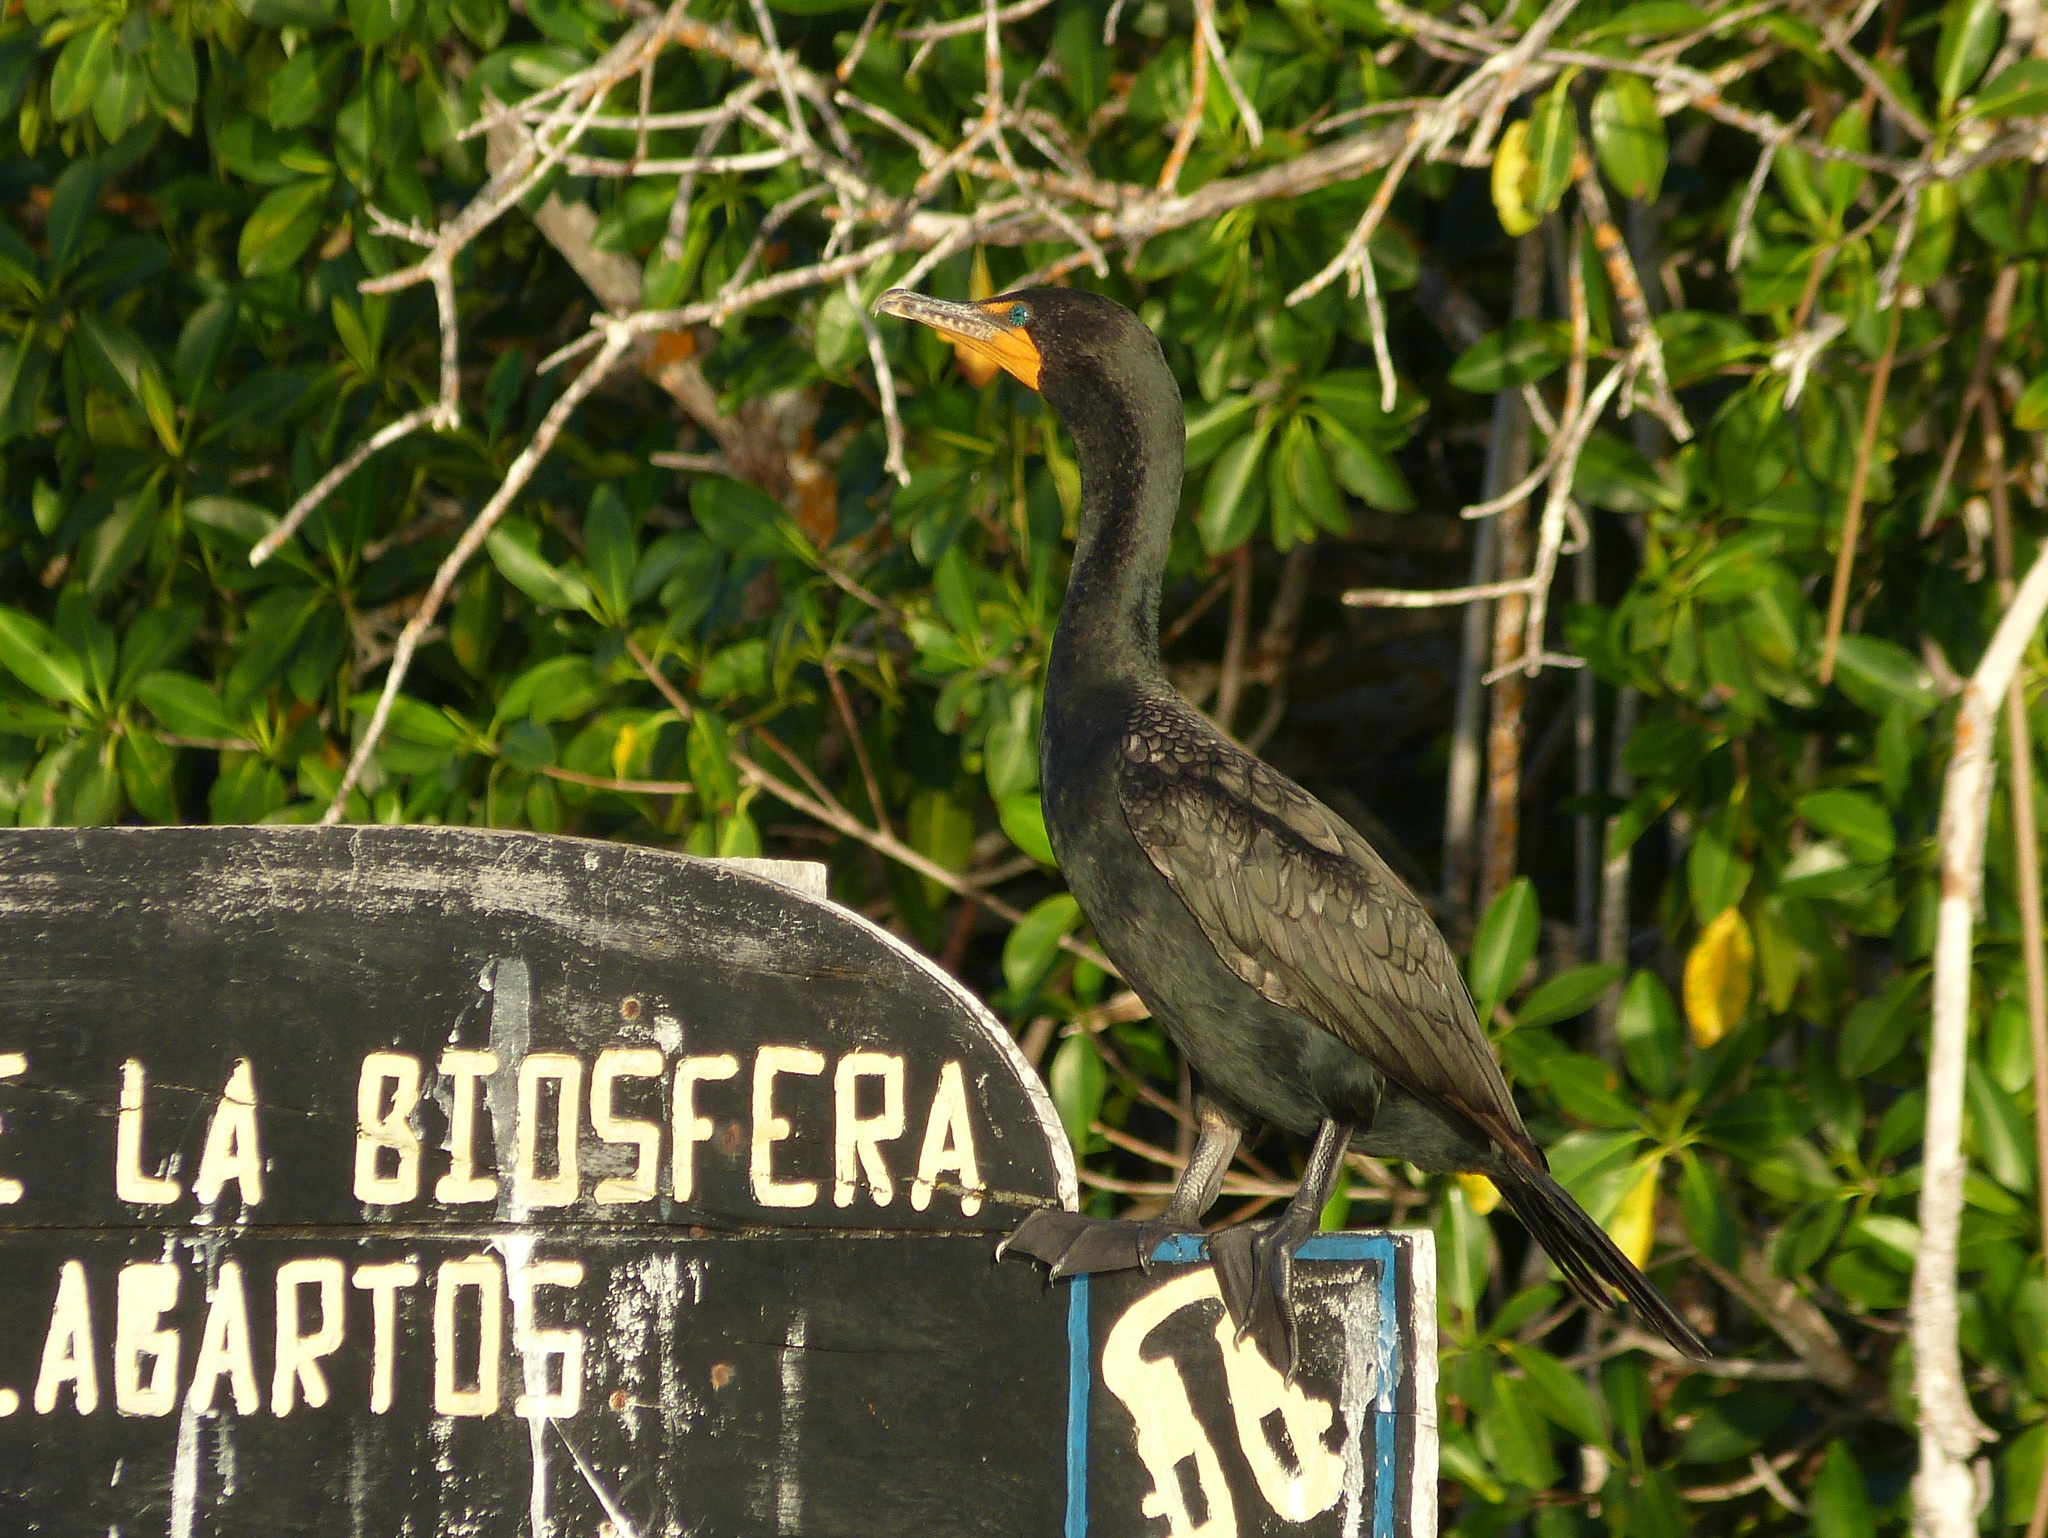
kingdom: Animalia
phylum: Chordata
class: Aves
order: Suliformes
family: Phalacrocoracidae
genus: Phalacrocorax
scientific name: Phalacrocorax auritus
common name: Double-crested cormorant
